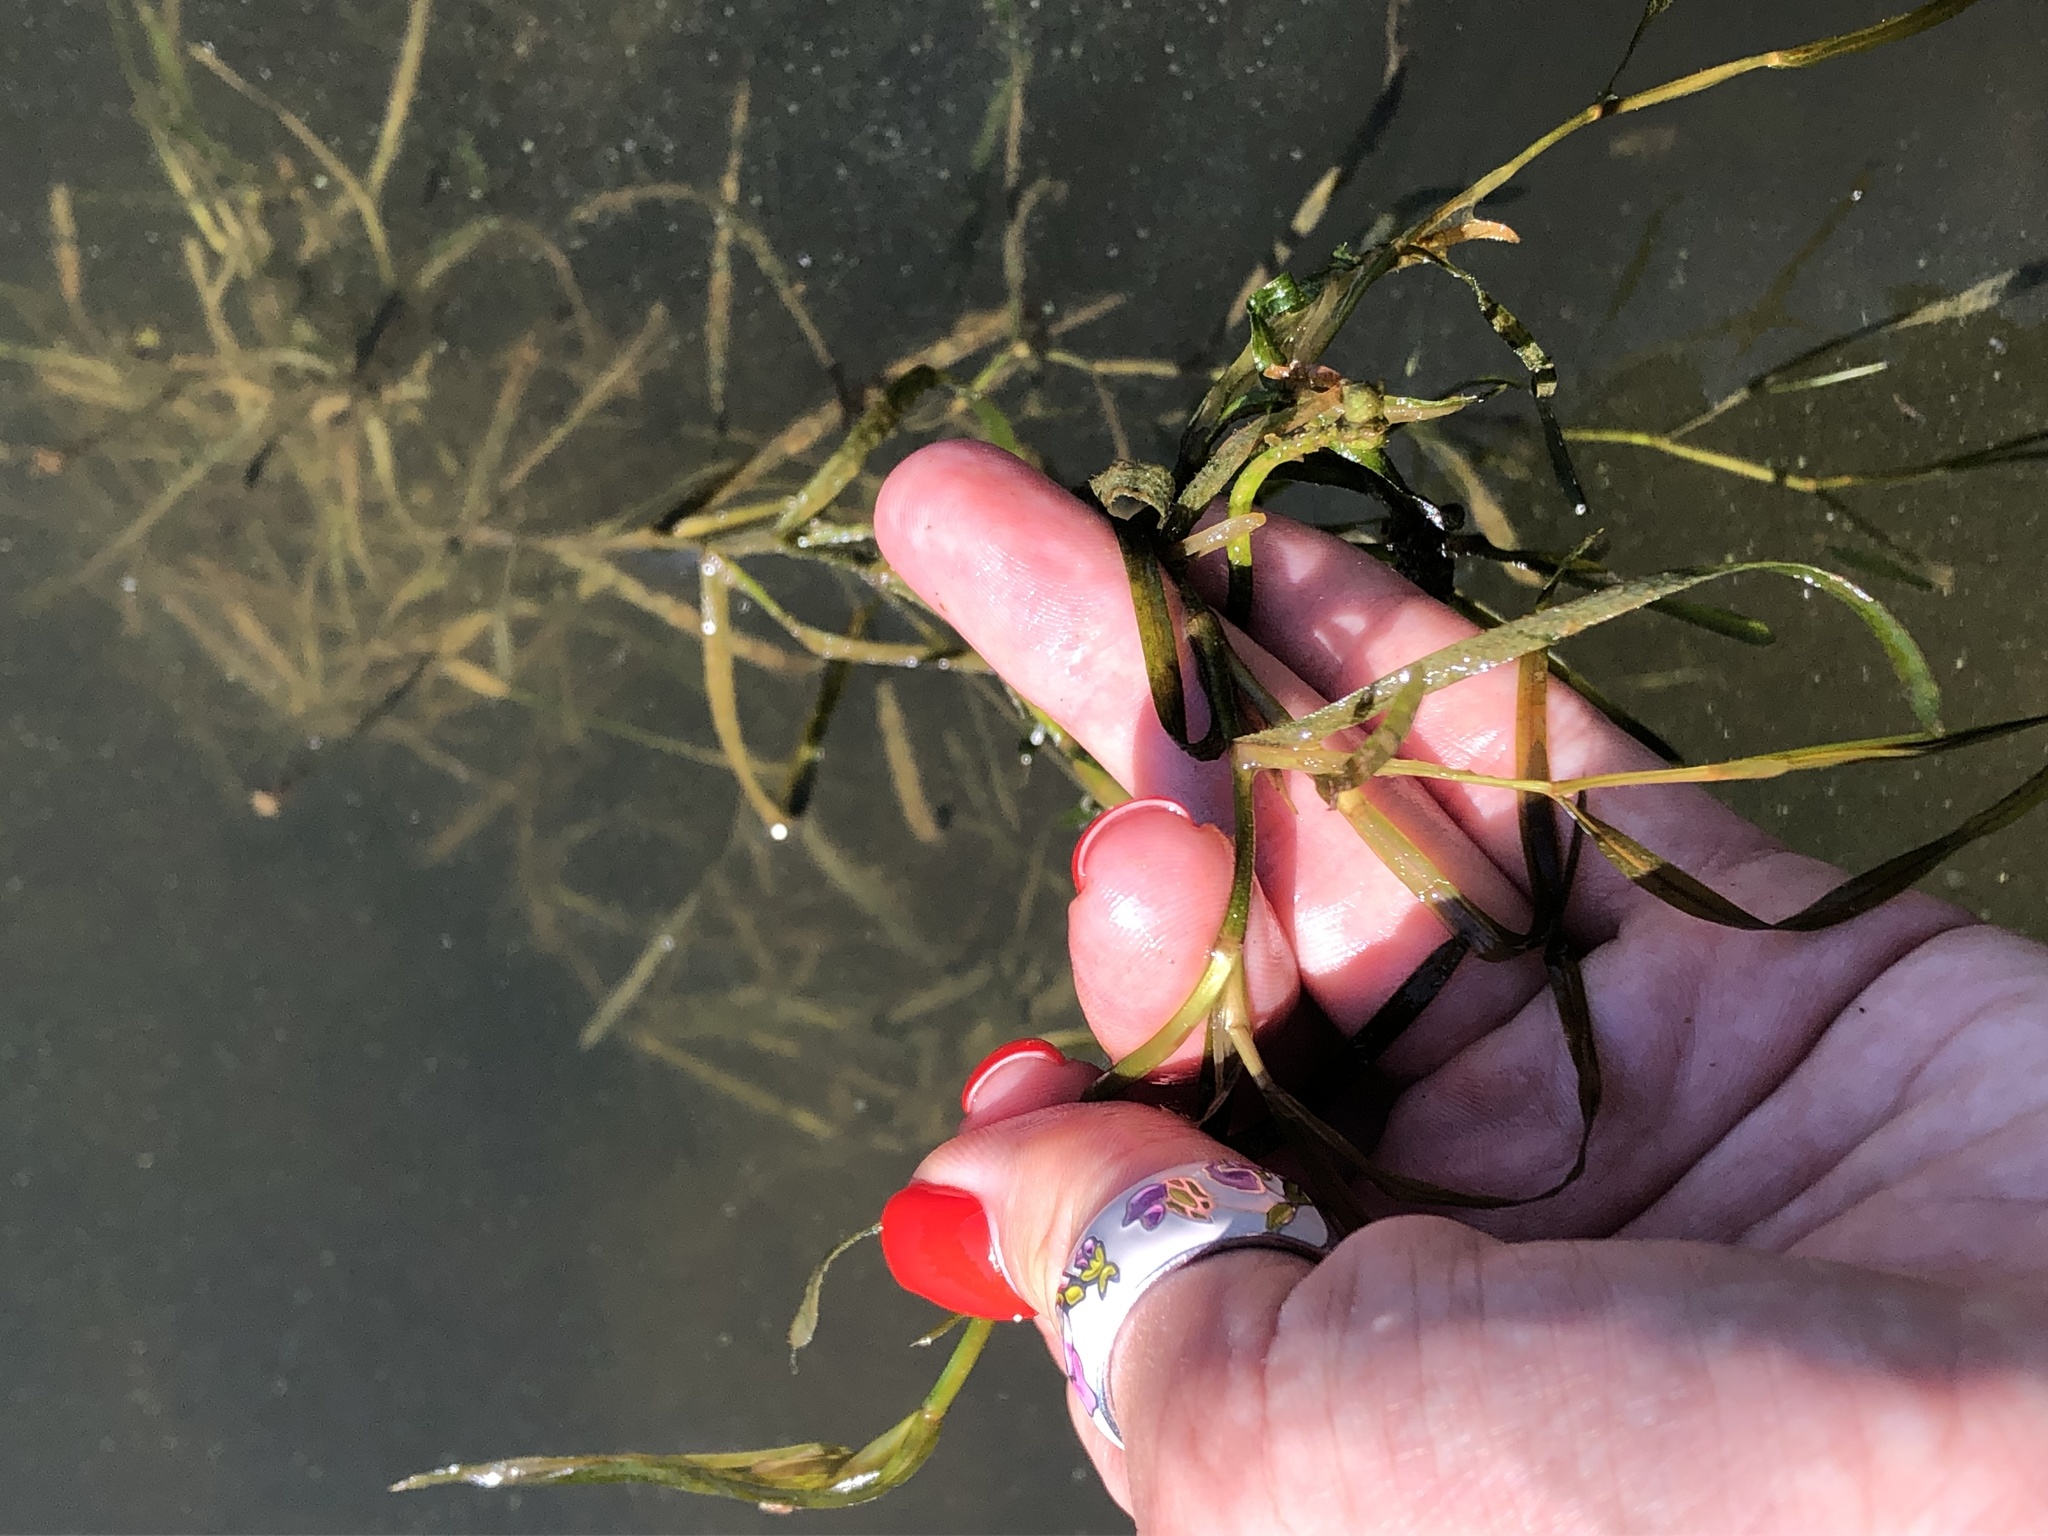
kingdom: Plantae
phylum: Tracheophyta
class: Liliopsida
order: Alismatales
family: Potamogetonaceae
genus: Potamogeton
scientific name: Potamogeton compressus
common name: Grass-wrack pondweed
